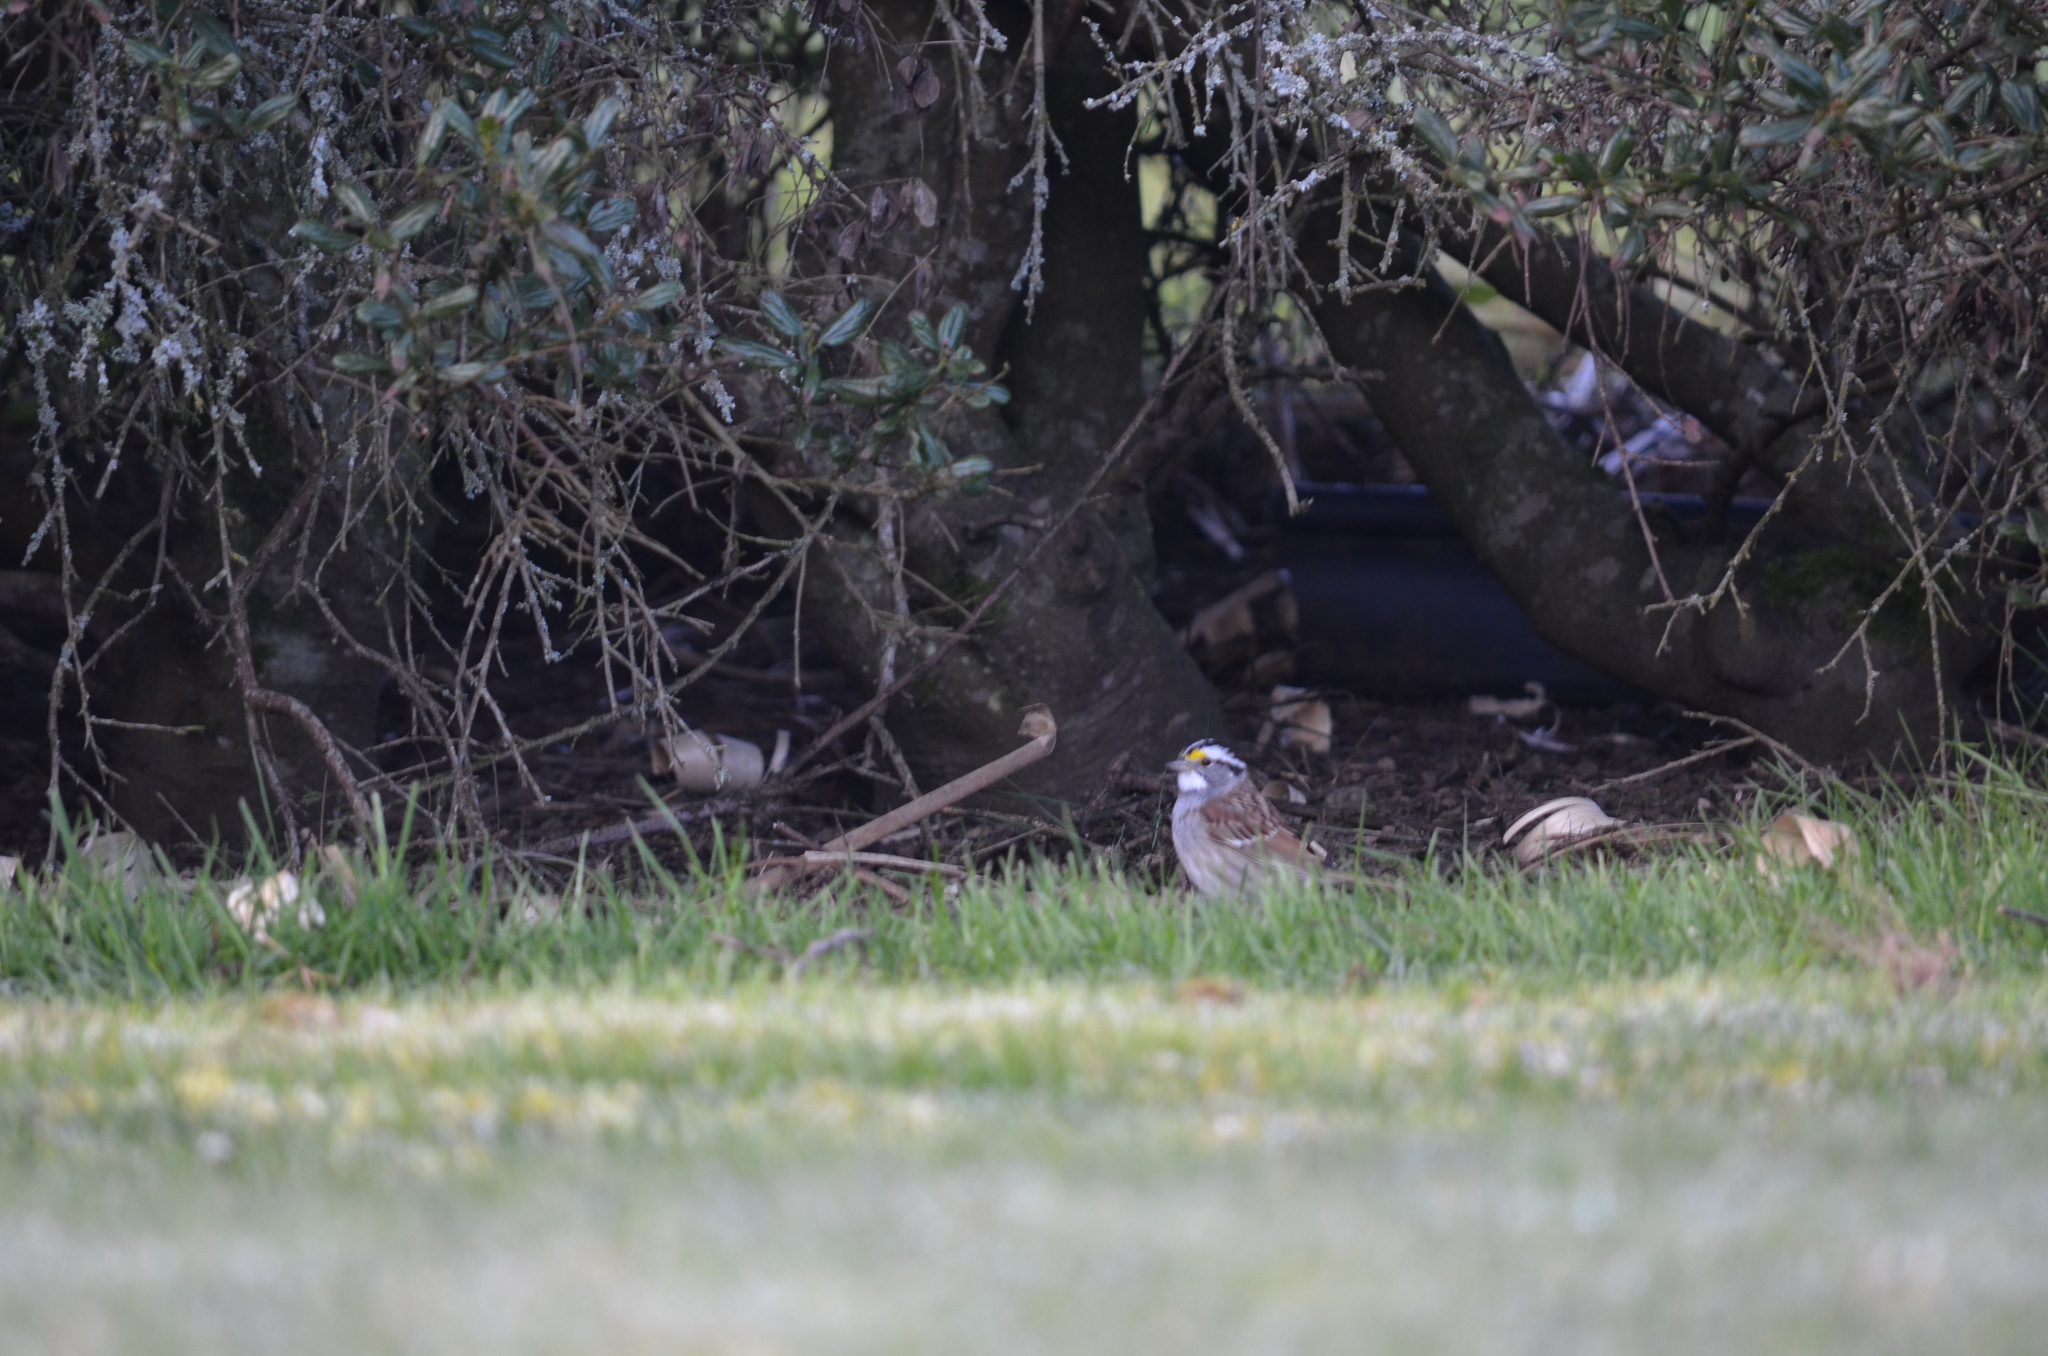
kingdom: Animalia
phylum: Chordata
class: Aves
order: Passeriformes
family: Passerellidae
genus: Zonotrichia
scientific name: Zonotrichia albicollis
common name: White-throated sparrow
